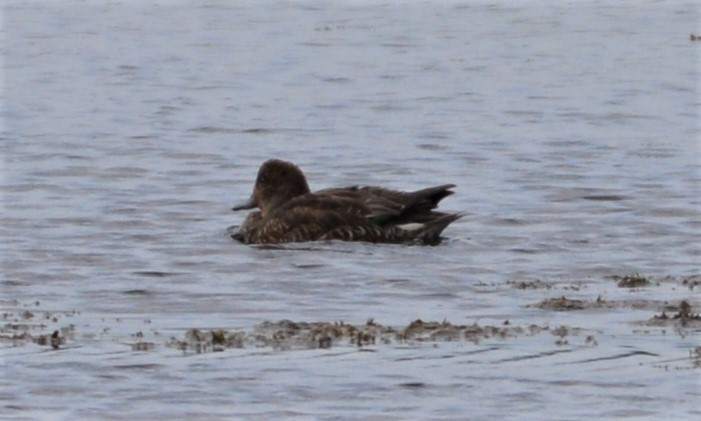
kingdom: Animalia
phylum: Chordata
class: Aves
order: Anseriformes
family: Anatidae
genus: Anas
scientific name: Anas crecca
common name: Eurasian teal
